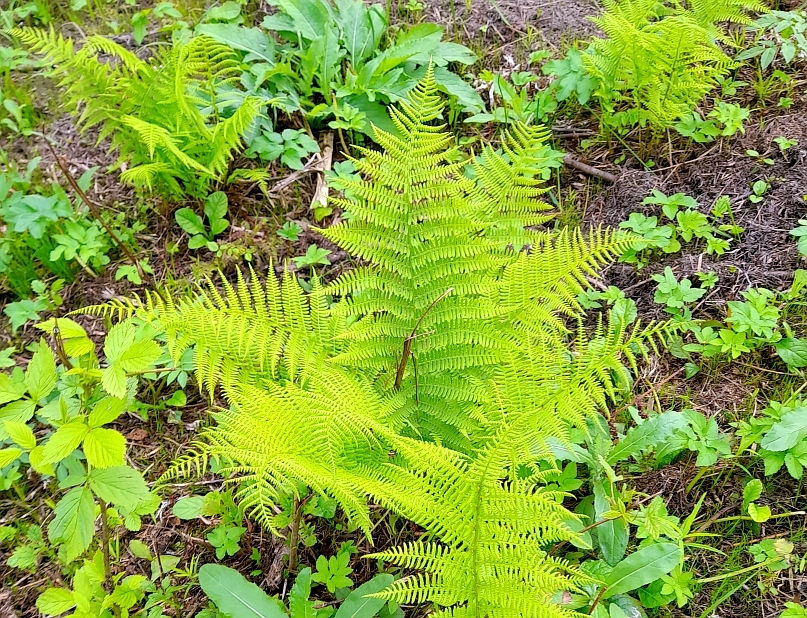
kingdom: Plantae
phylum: Tracheophyta
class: Polypodiopsida
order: Polypodiales
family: Athyriaceae
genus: Athyrium
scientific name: Athyrium filix-femina
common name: Lady fern
